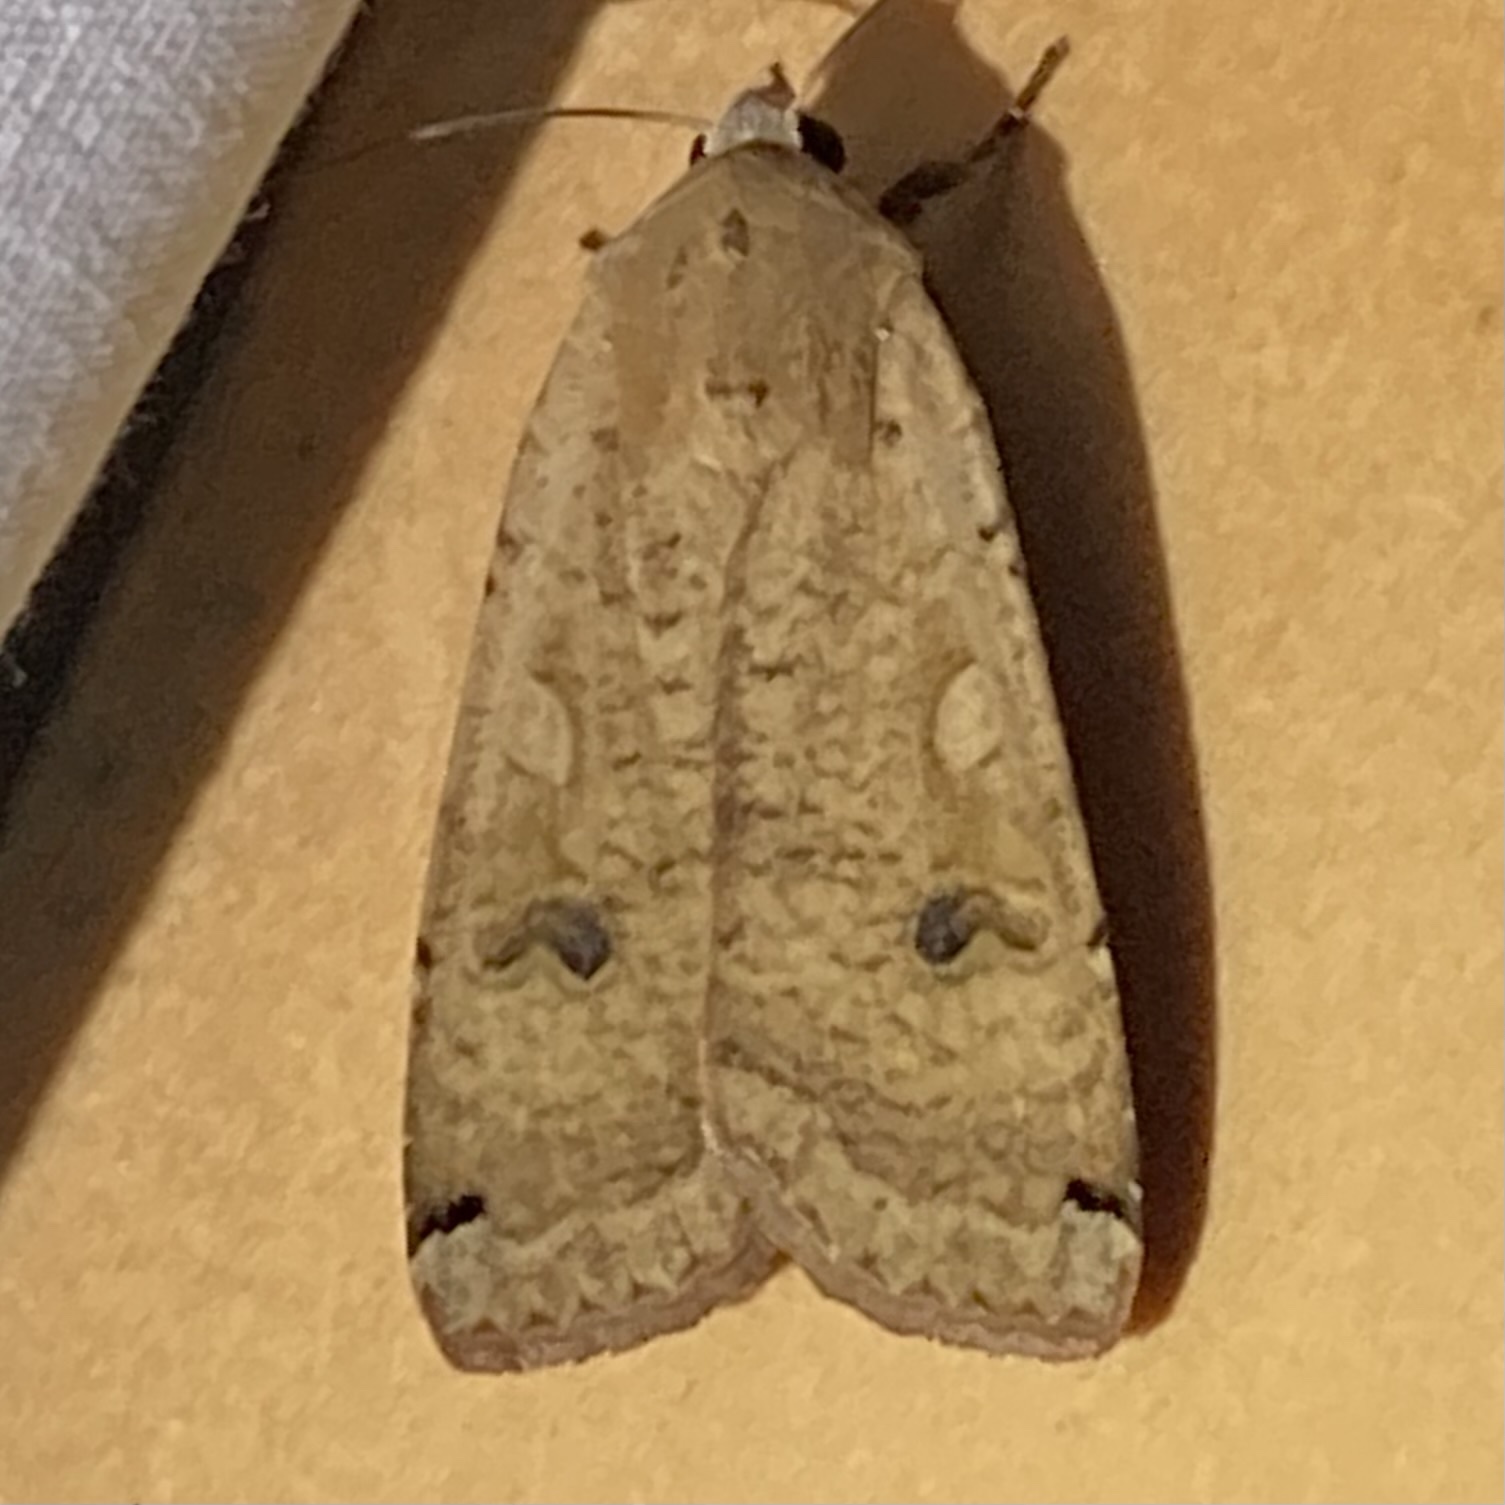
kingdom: Animalia
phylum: Arthropoda
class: Insecta
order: Lepidoptera
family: Noctuidae
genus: Noctua
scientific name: Noctua pronuba
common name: Large yellow underwing
